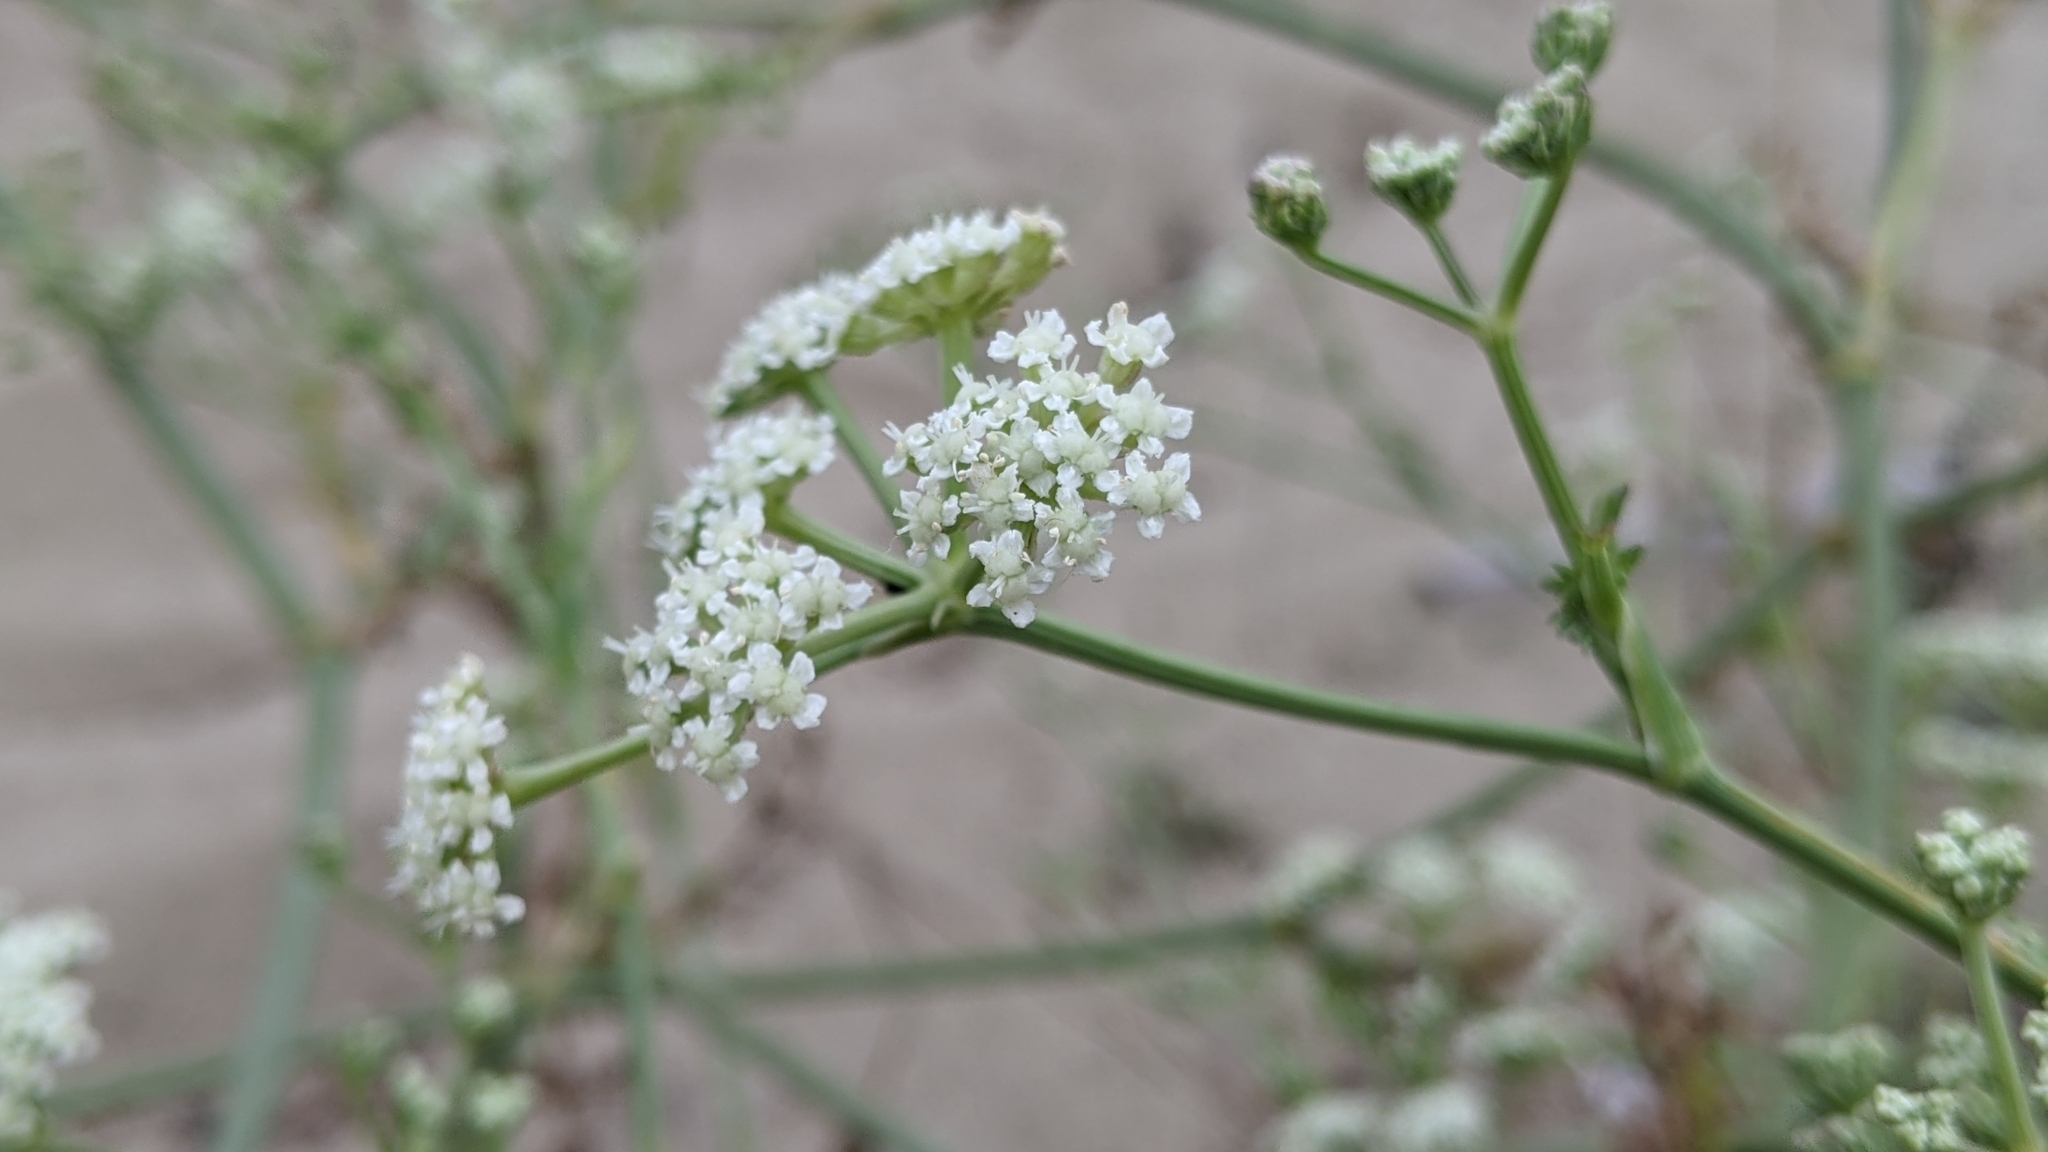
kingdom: Plantae
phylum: Tracheophyta
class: Magnoliopsida
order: Apiales
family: Apiaceae
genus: Seseli
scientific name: Seseli tortuosum
